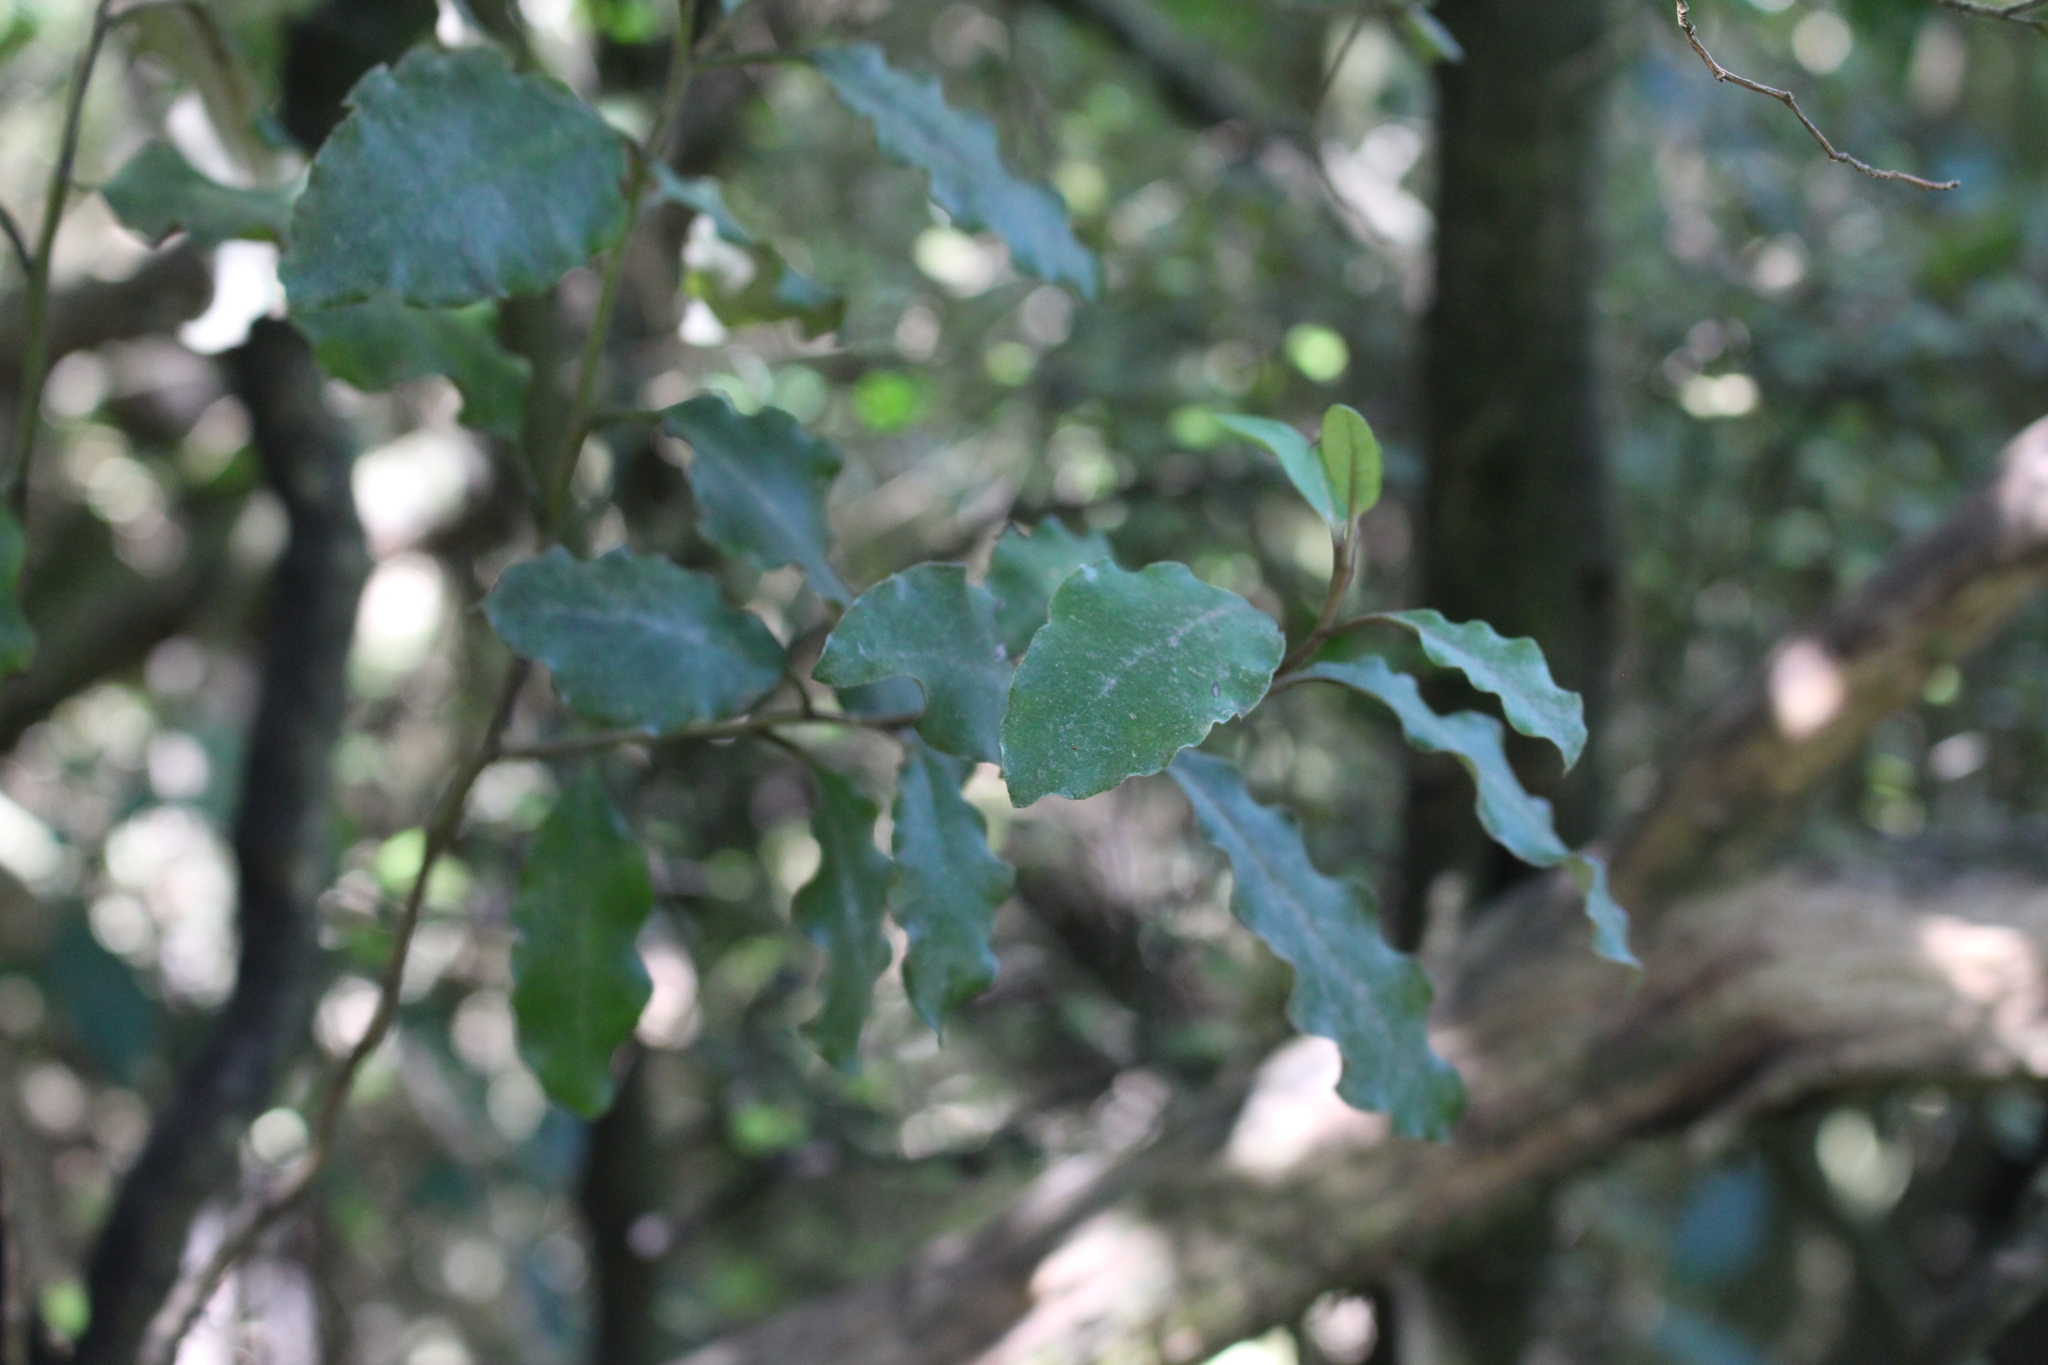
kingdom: Plantae
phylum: Tracheophyta
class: Magnoliopsida
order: Asterales
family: Asteraceae
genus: Olearia
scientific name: Olearia paniculata
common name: Akiraho
